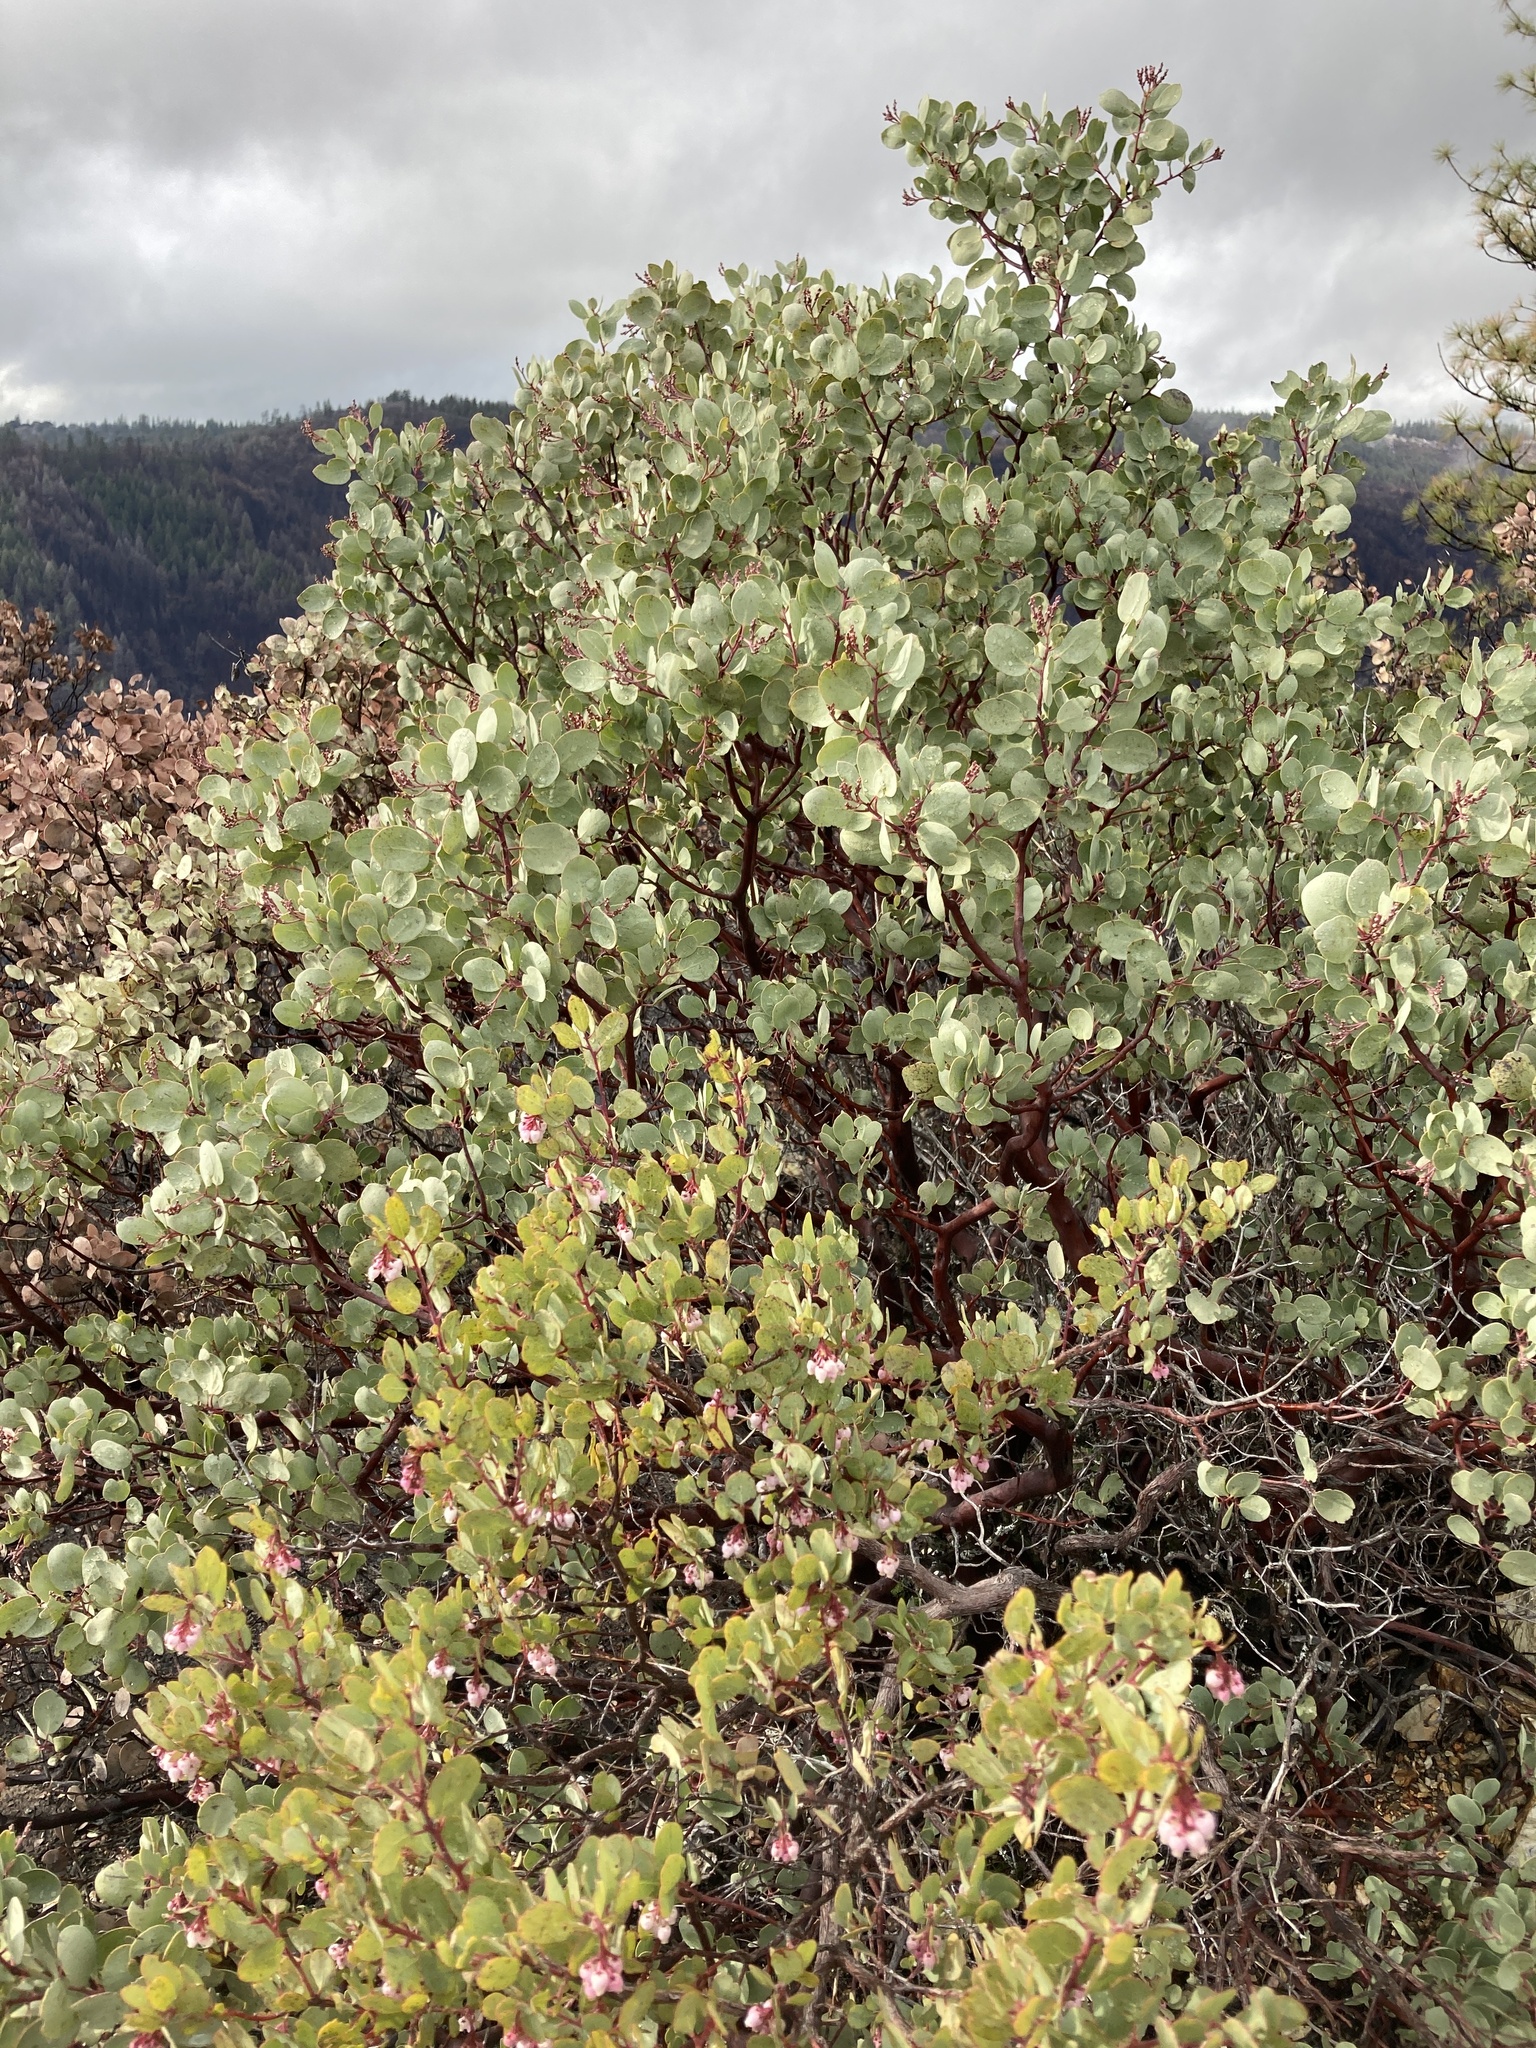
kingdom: Plantae
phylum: Tracheophyta
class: Magnoliopsida
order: Ericales
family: Ericaceae
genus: Arctostaphylos
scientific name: Arctostaphylos nissenana
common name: Nissenan manzanita
